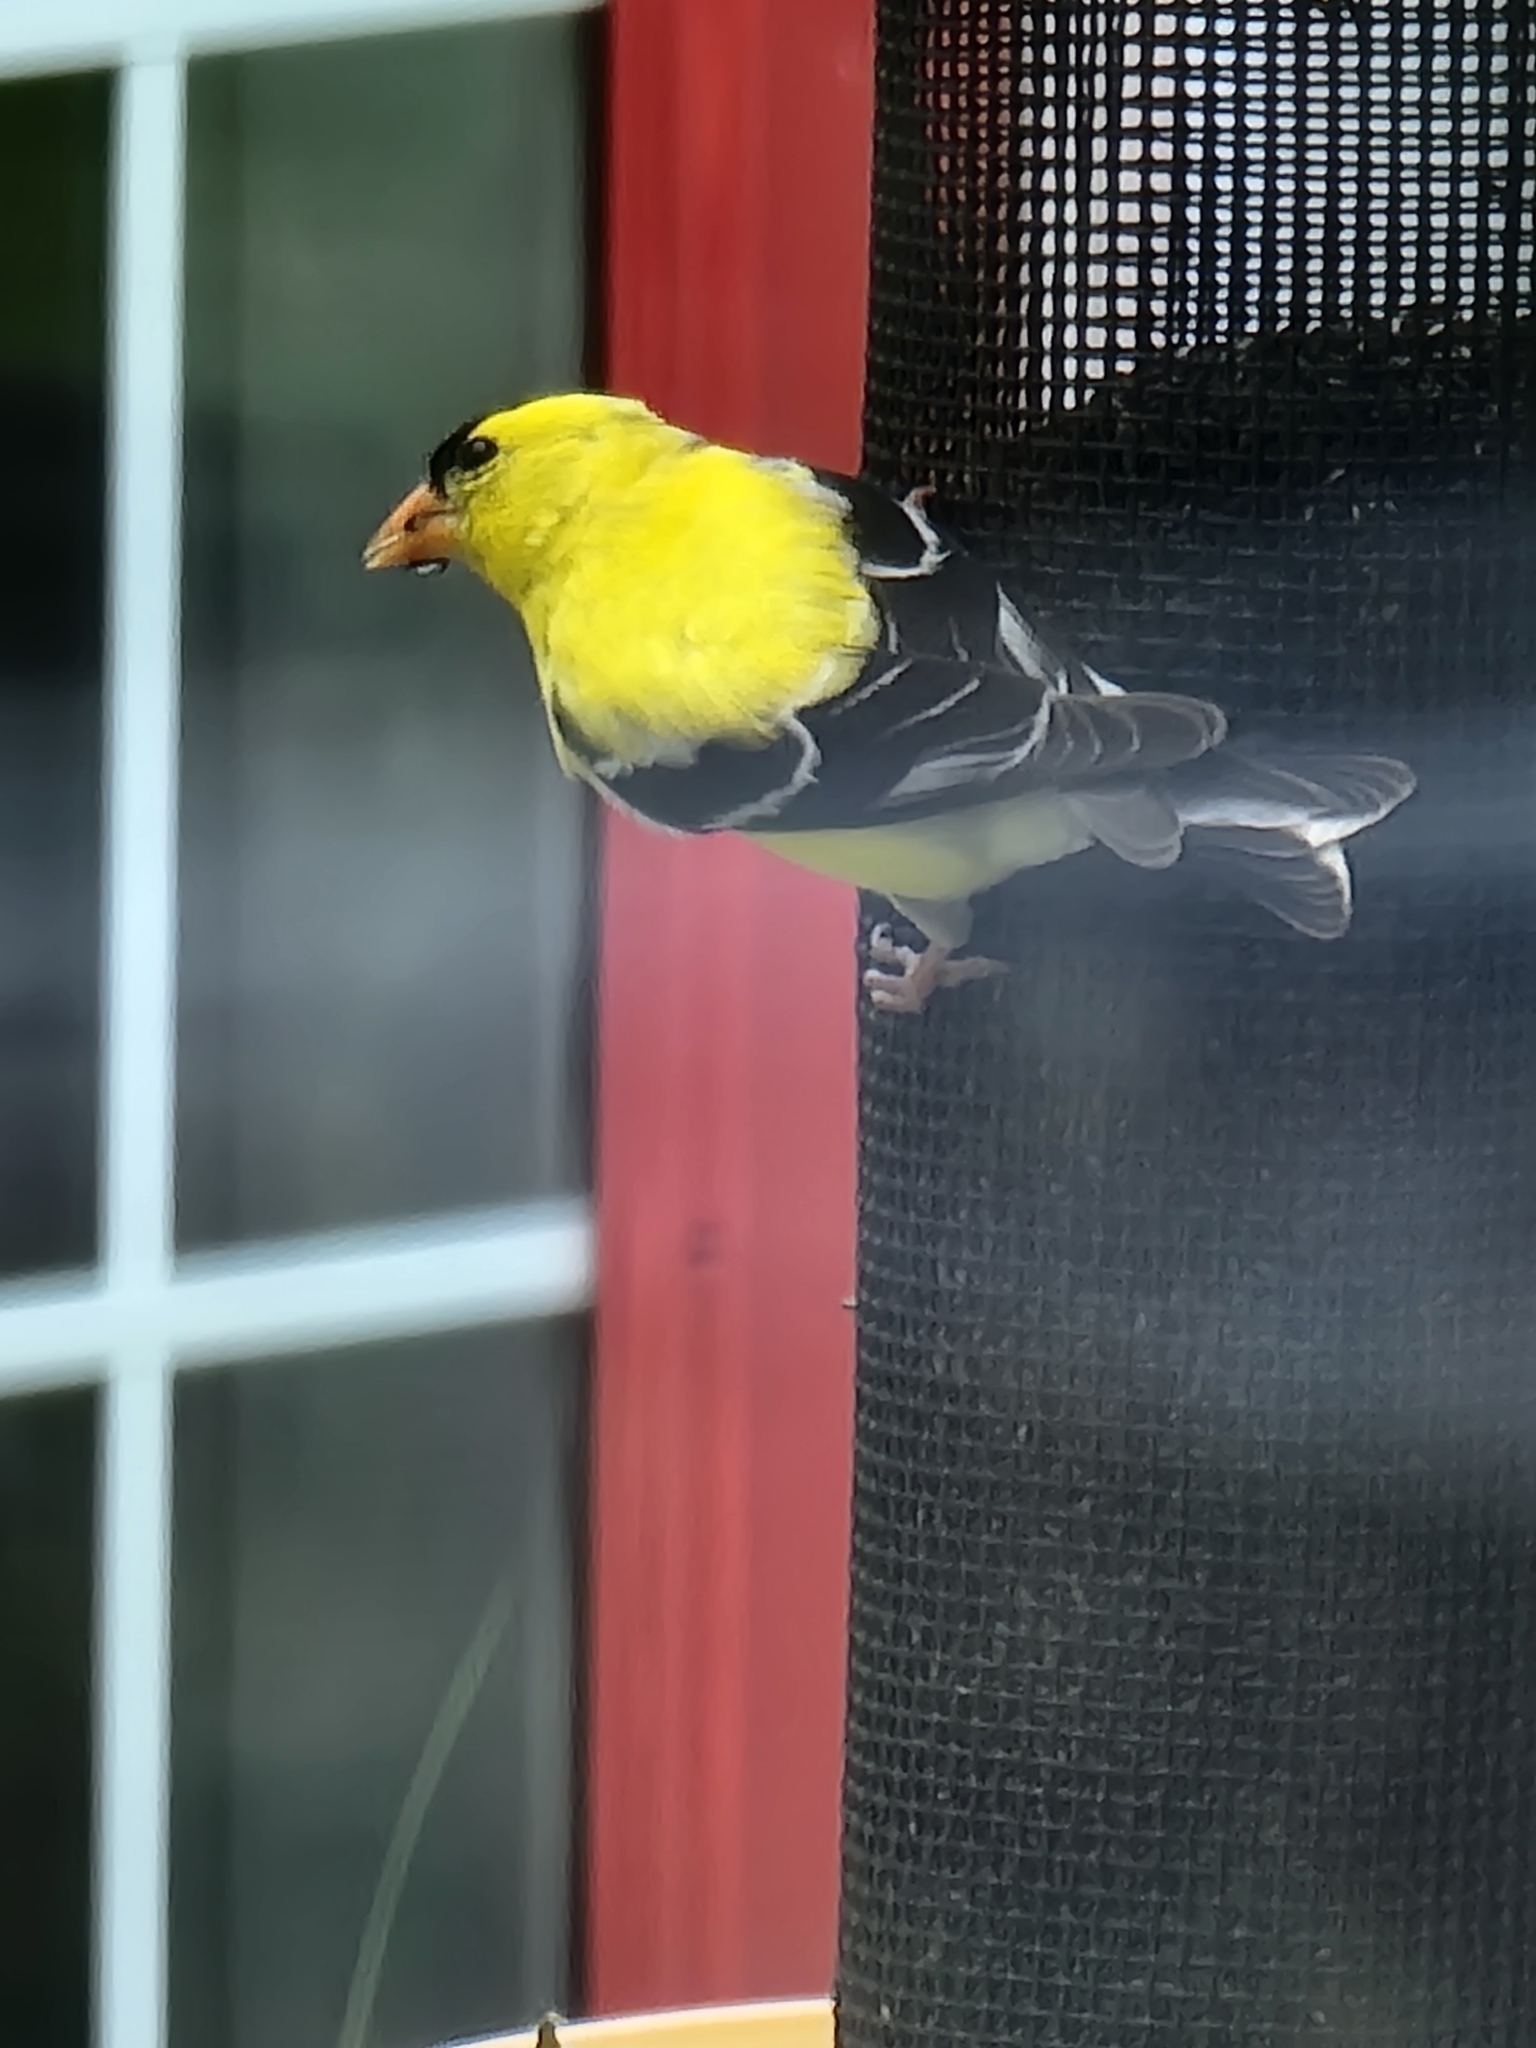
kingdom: Animalia
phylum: Chordata
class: Aves
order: Passeriformes
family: Fringillidae
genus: Spinus
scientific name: Spinus tristis
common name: American goldfinch
